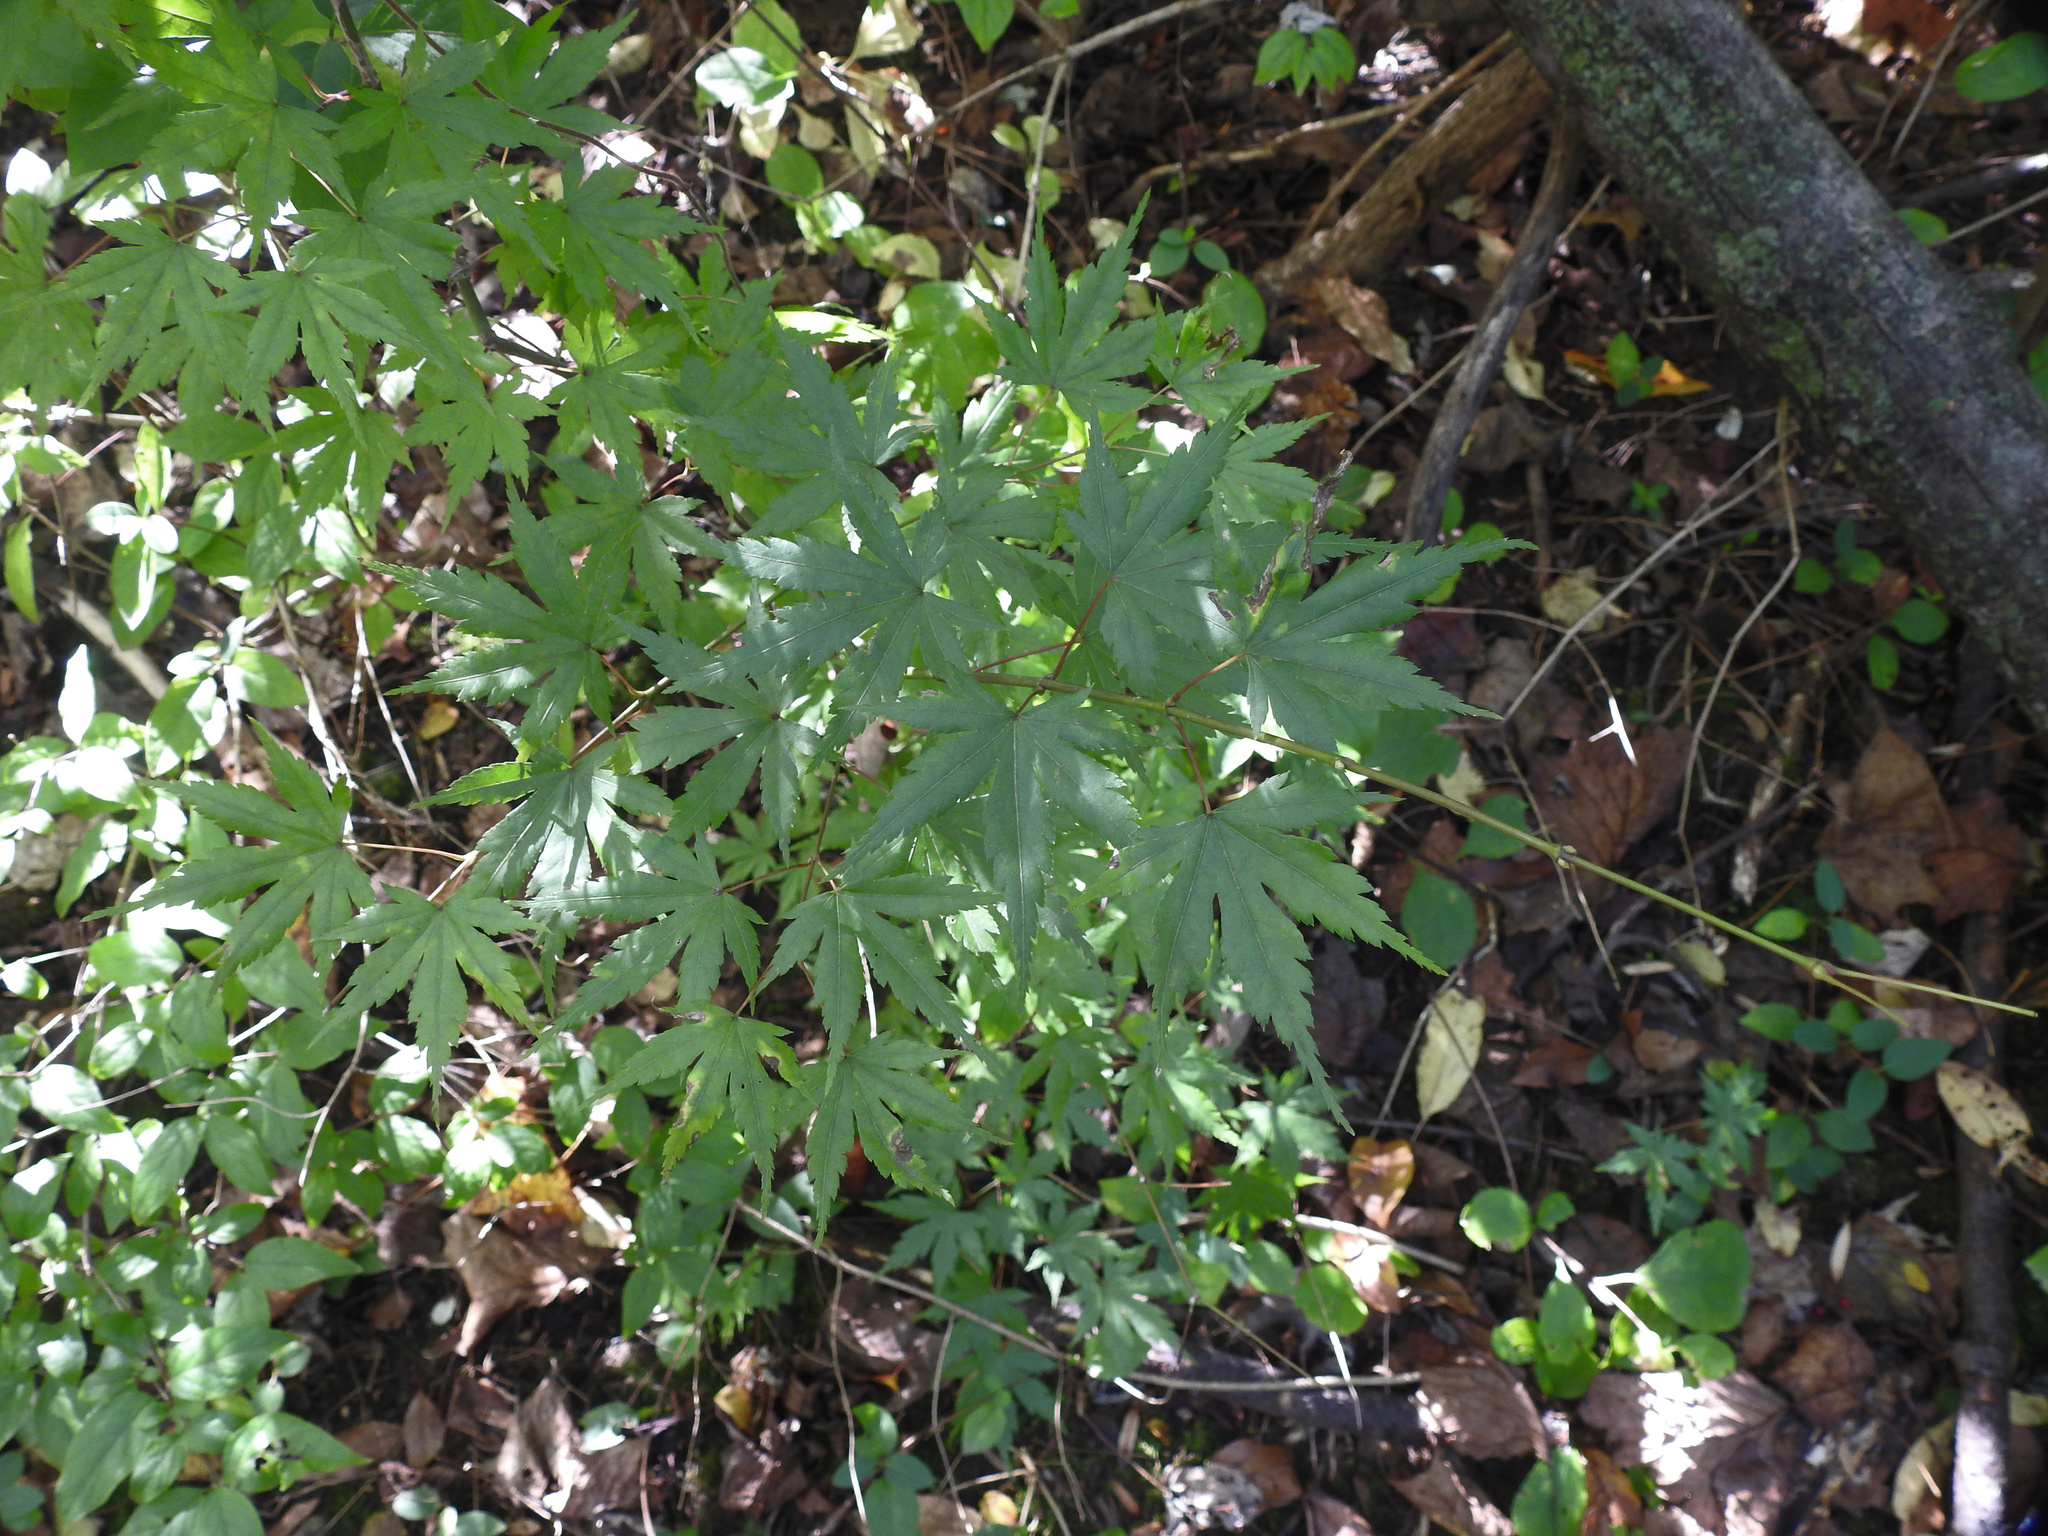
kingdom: Plantae
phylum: Tracheophyta
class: Magnoliopsida
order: Sapindales
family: Sapindaceae
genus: Acer
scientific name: Acer palmatum
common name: Japanese maple
